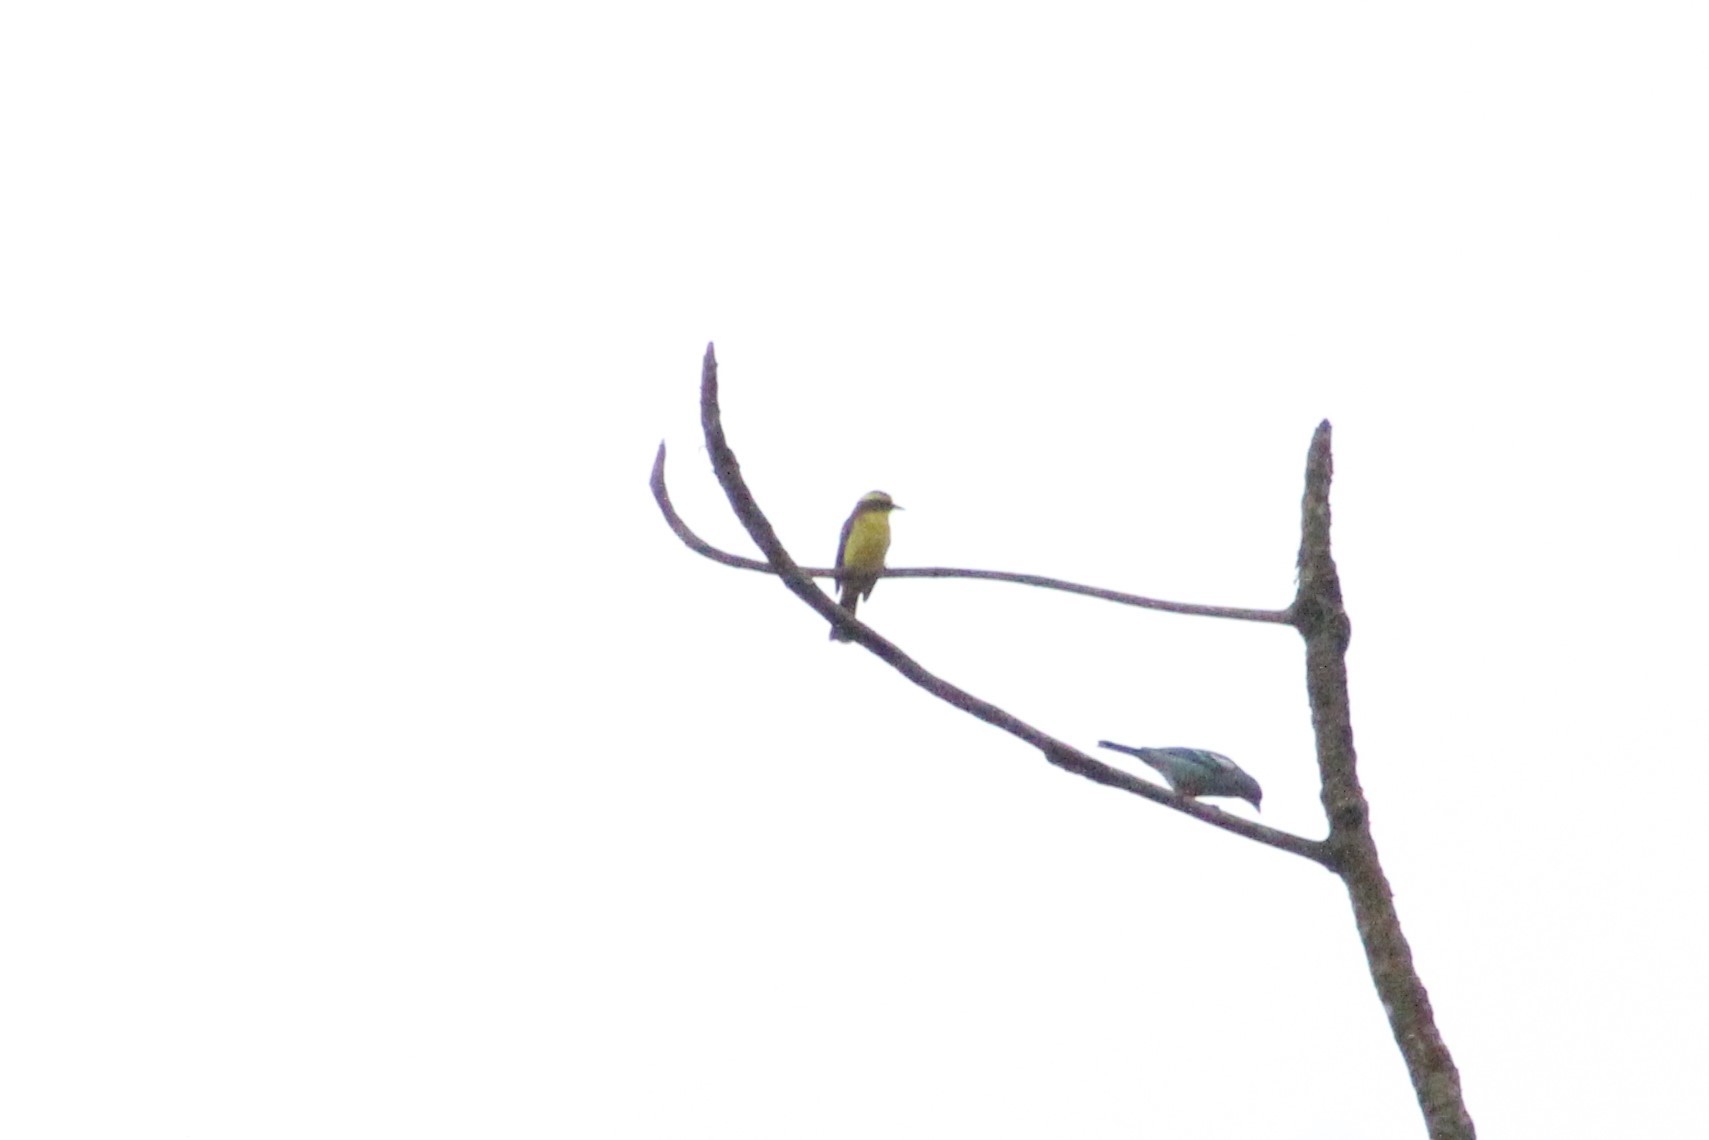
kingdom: Animalia
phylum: Chordata
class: Aves
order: Passeriformes
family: Tyrannidae
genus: Conopias
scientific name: Conopias cinchoneti
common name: Lemon-browed flycatcher
